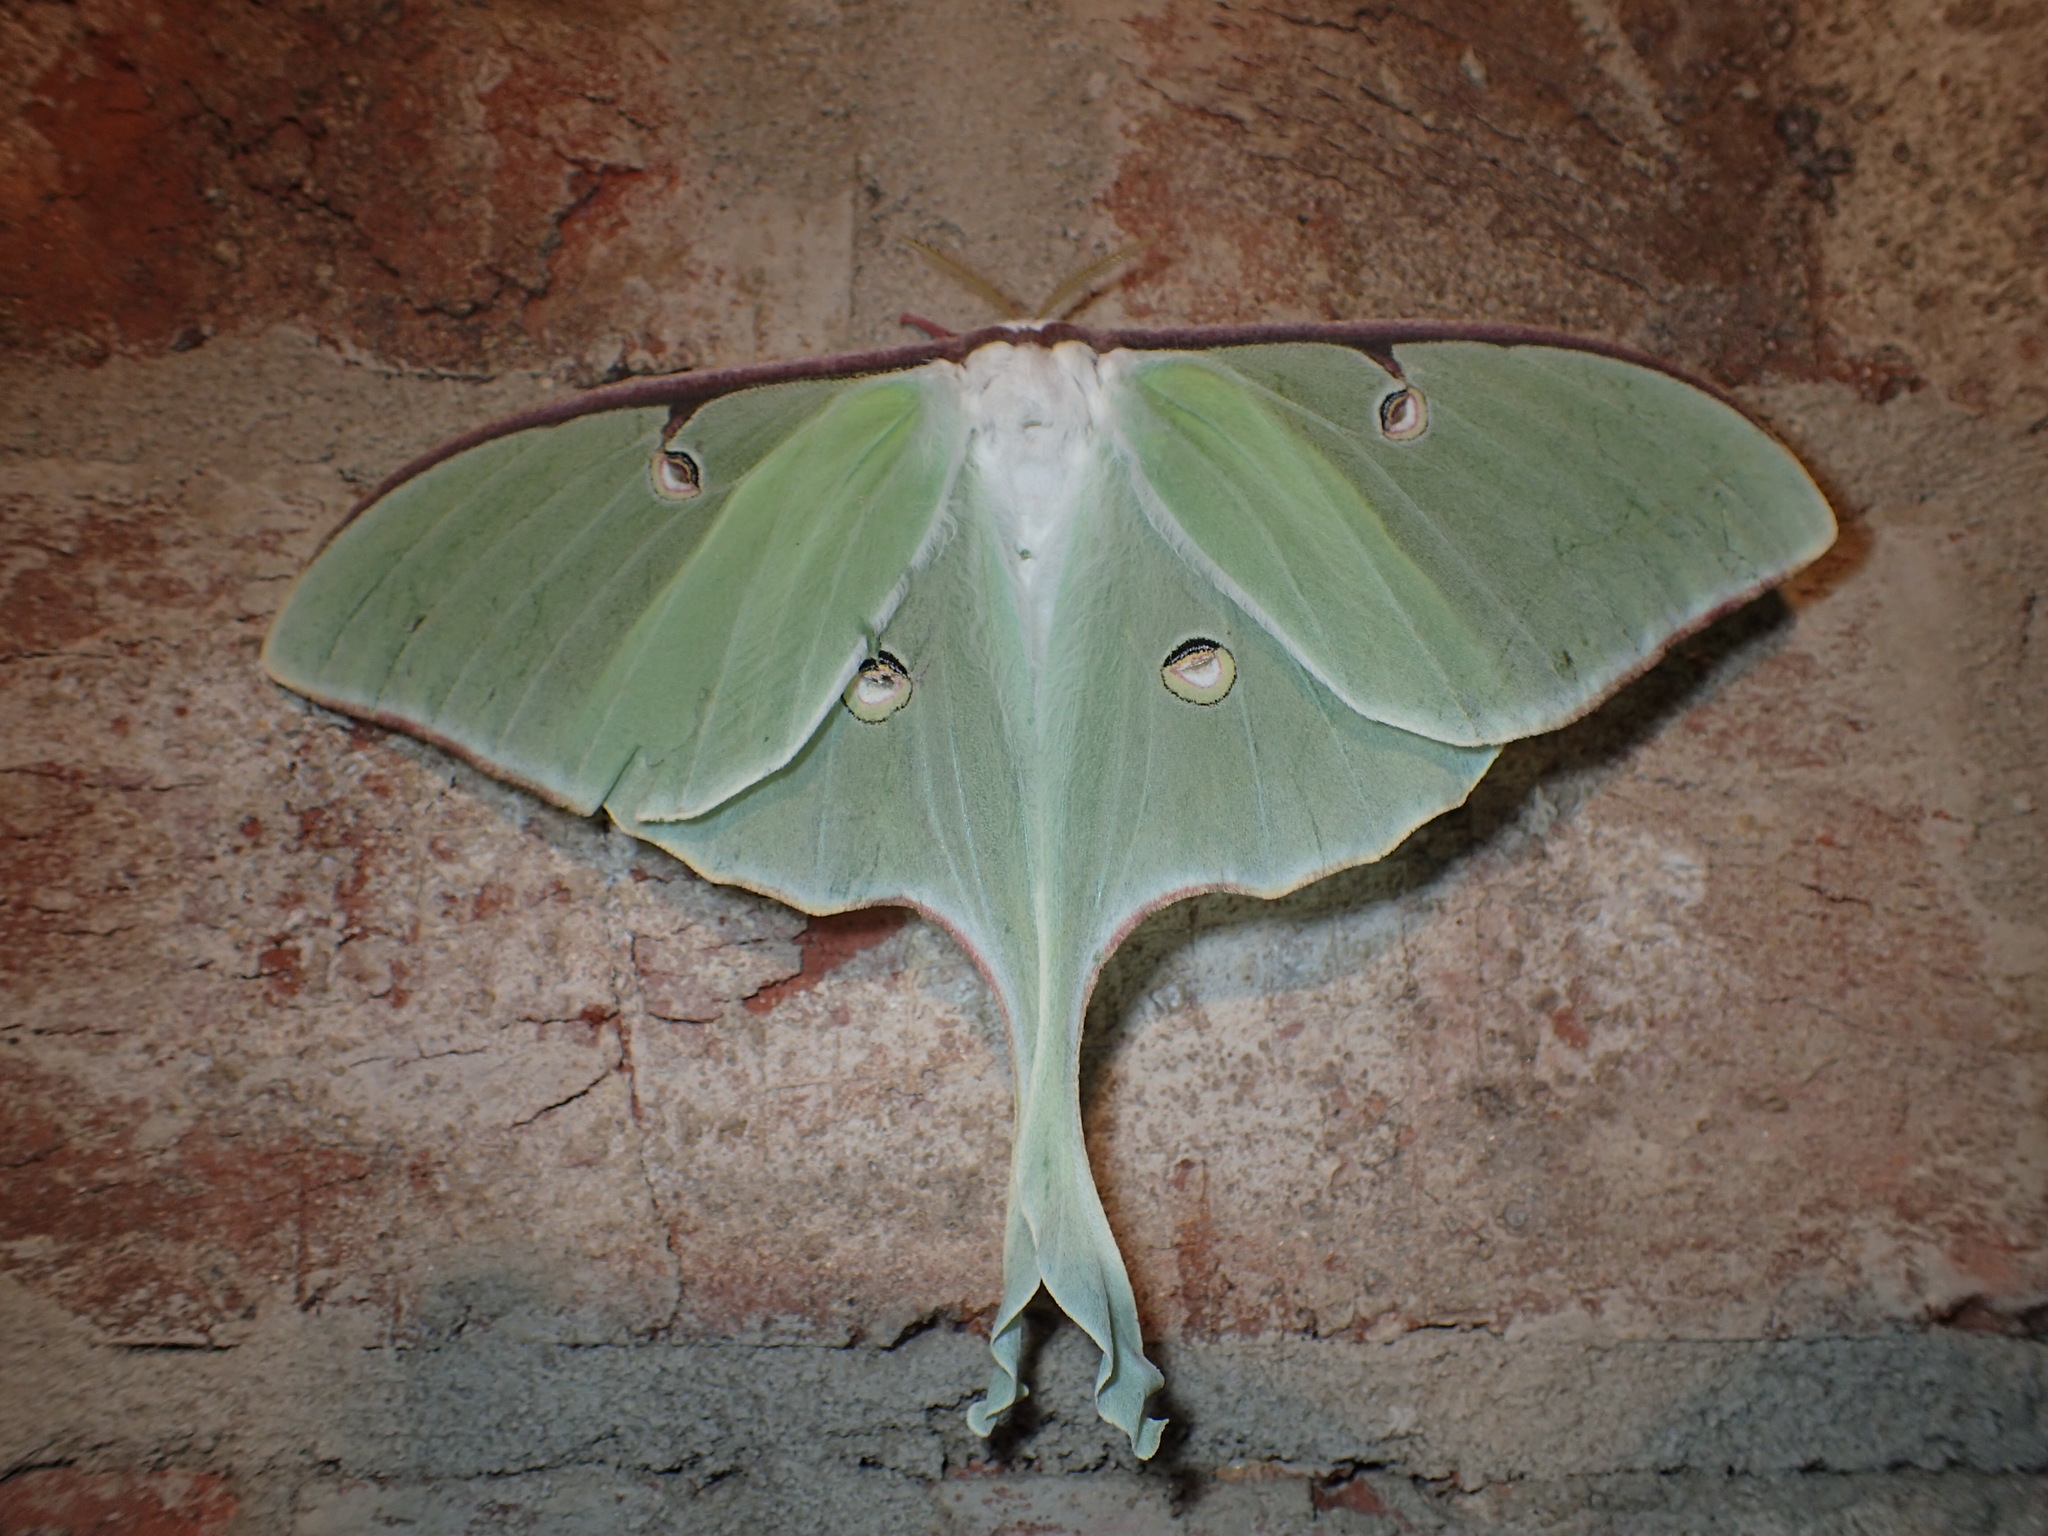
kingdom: Animalia
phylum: Arthropoda
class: Insecta
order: Lepidoptera
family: Saturniidae
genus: Actias
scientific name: Actias luna
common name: Luna moth
